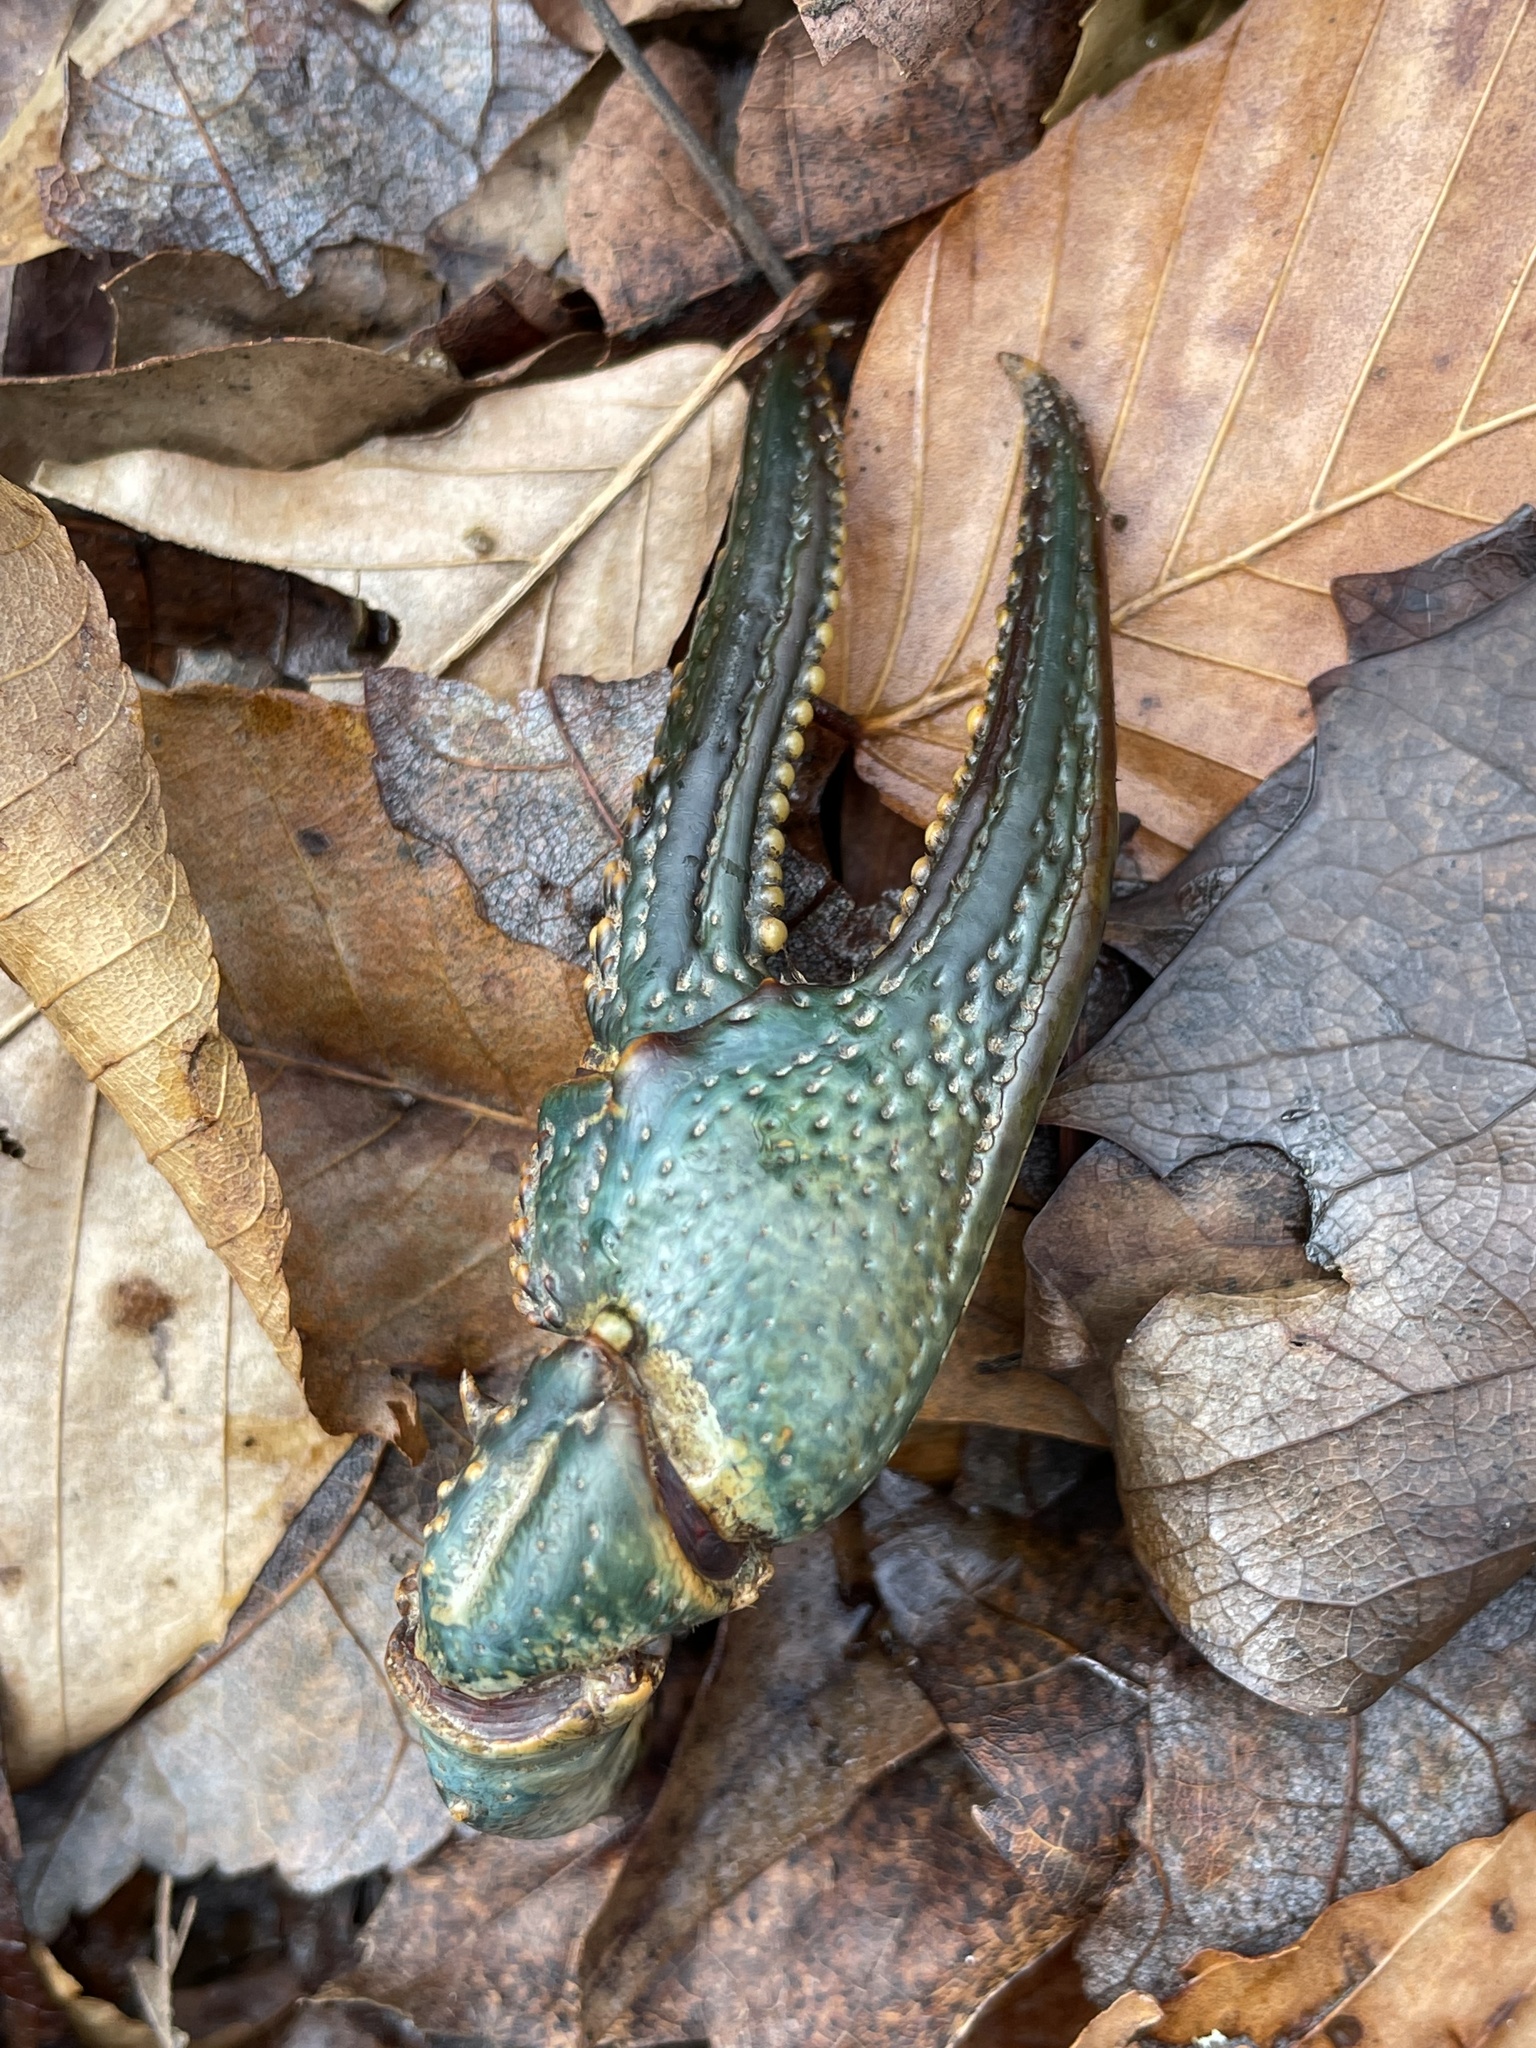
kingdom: Animalia
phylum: Arthropoda
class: Malacostraca
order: Decapoda
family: Cambaridae
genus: Faxonius
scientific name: Faxonius virilis
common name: Virile crayfish
